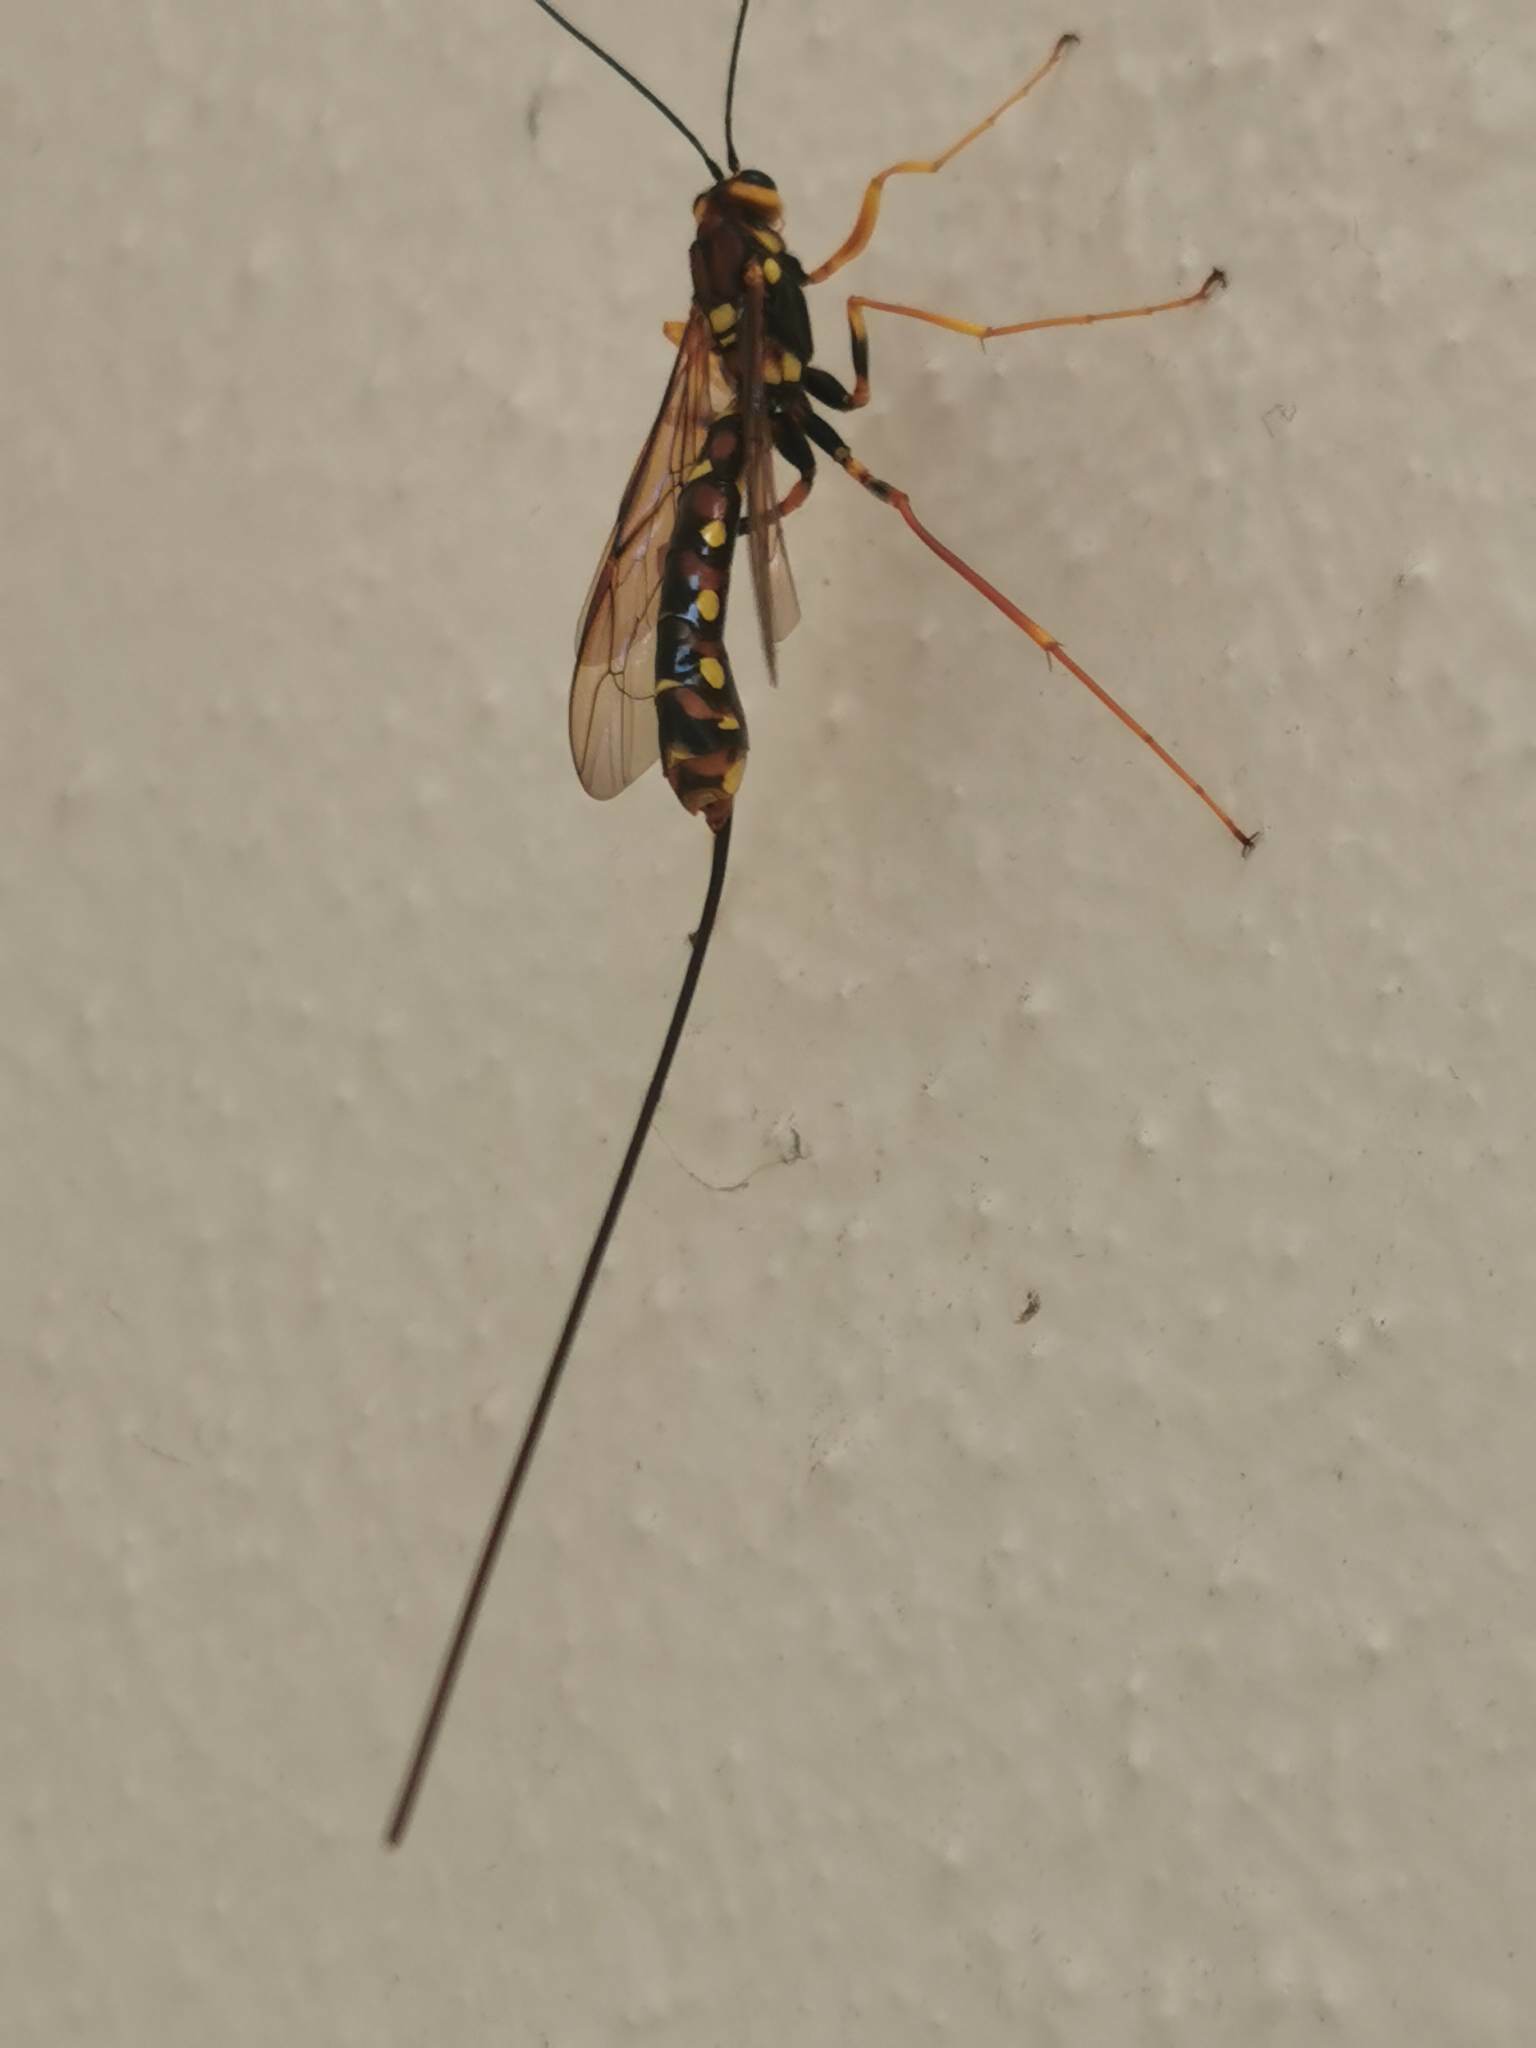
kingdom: Animalia
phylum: Arthropoda
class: Insecta
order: Hymenoptera
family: Ichneumonidae
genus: Megarhyssa
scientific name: Megarhyssa nortoni
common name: Norton's giant ichneumonid wasp
